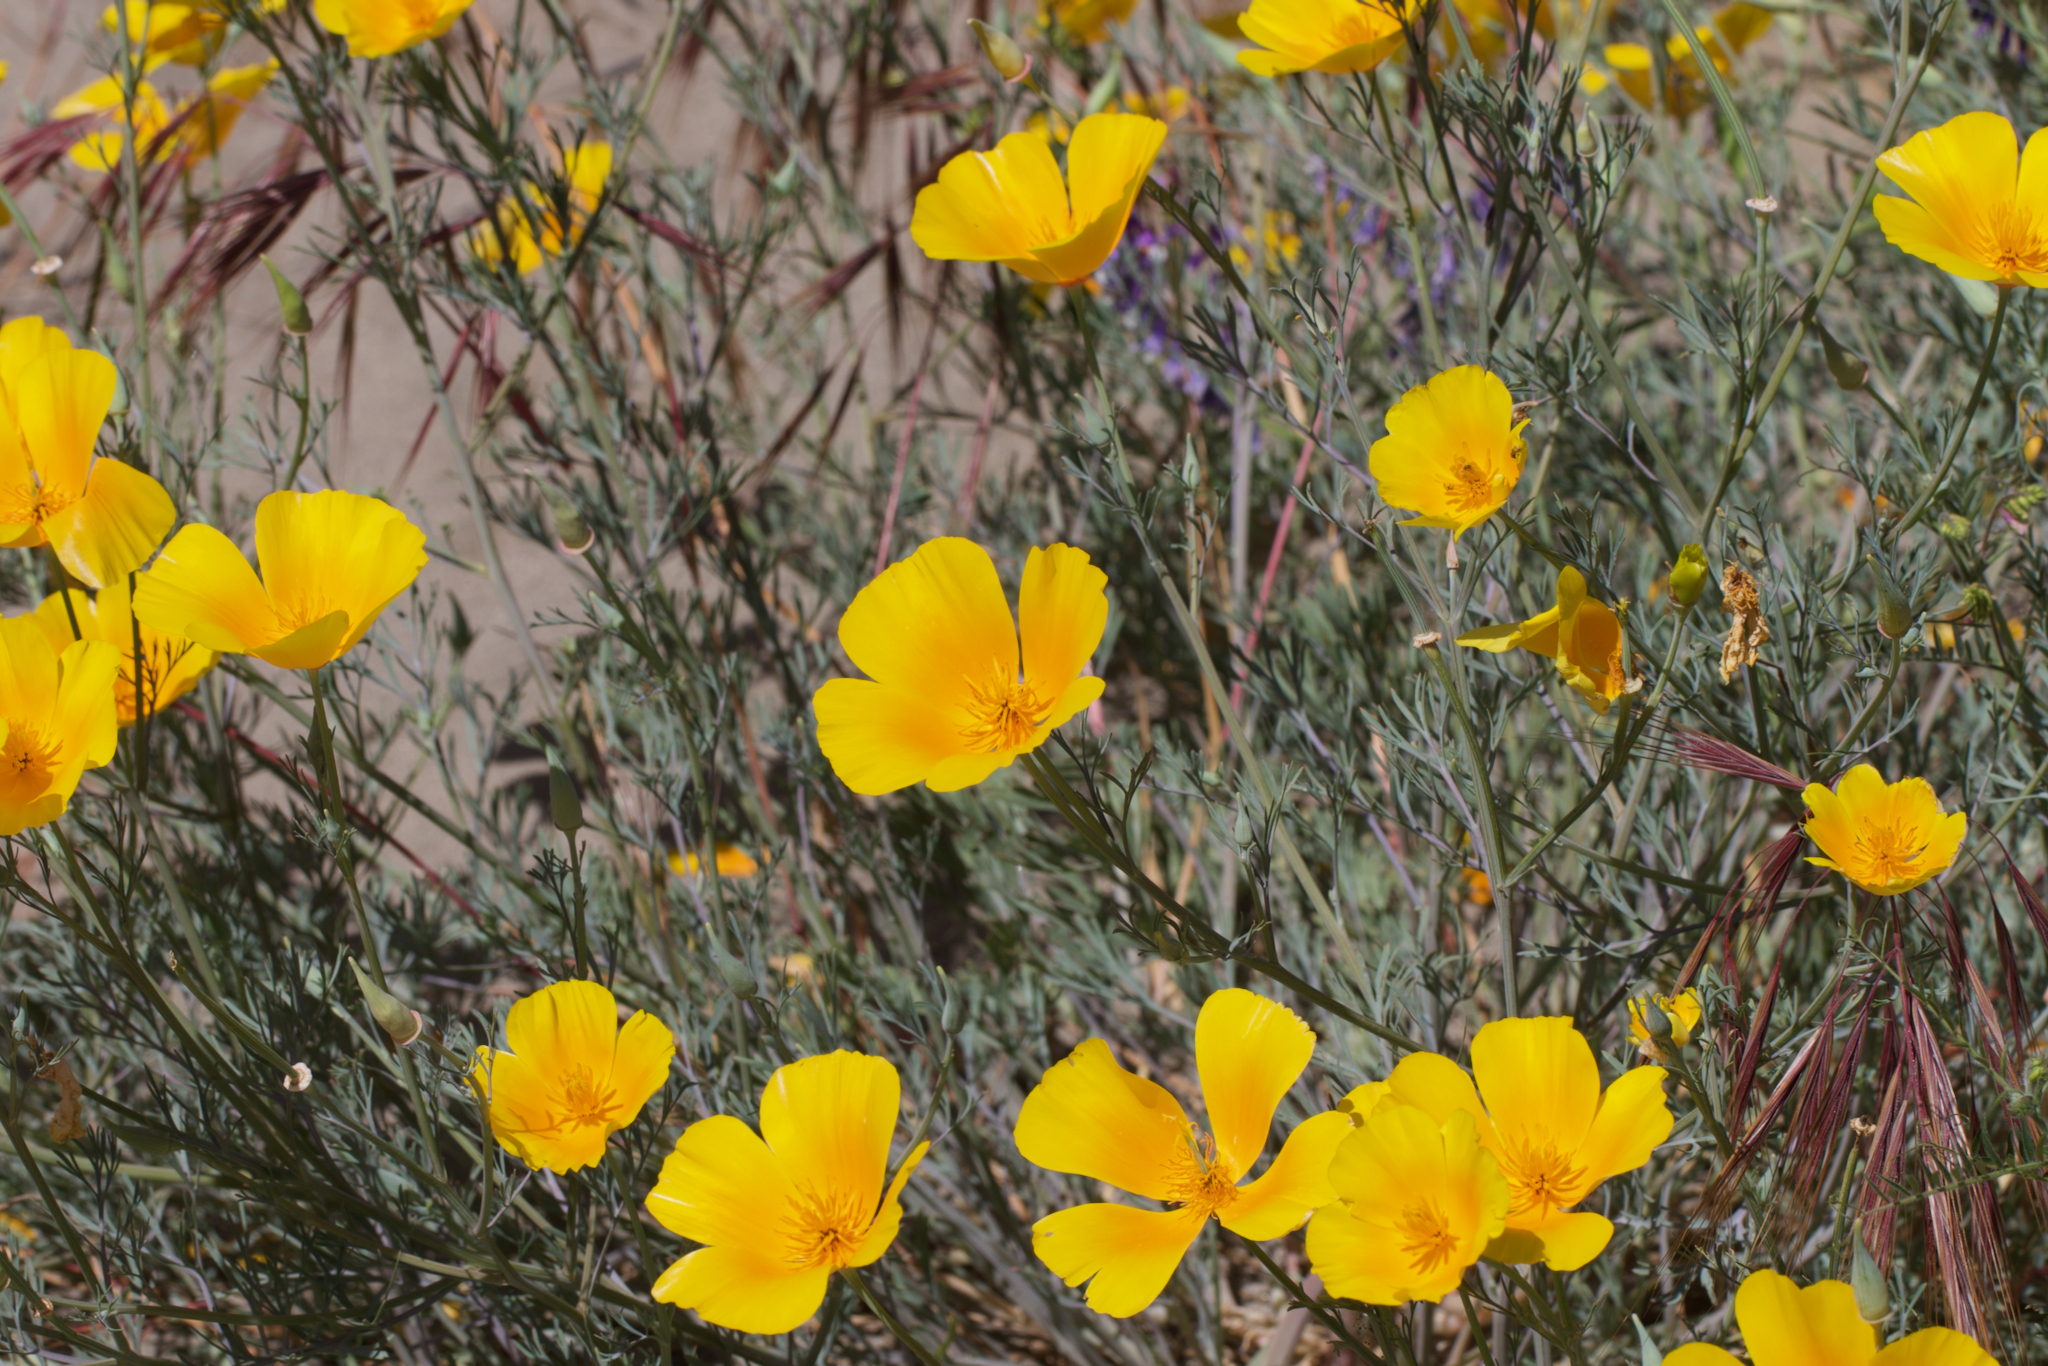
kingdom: Plantae
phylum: Tracheophyta
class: Magnoliopsida
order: Ranunculales
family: Papaveraceae
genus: Eschscholzia
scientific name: Eschscholzia californica
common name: California poppy
